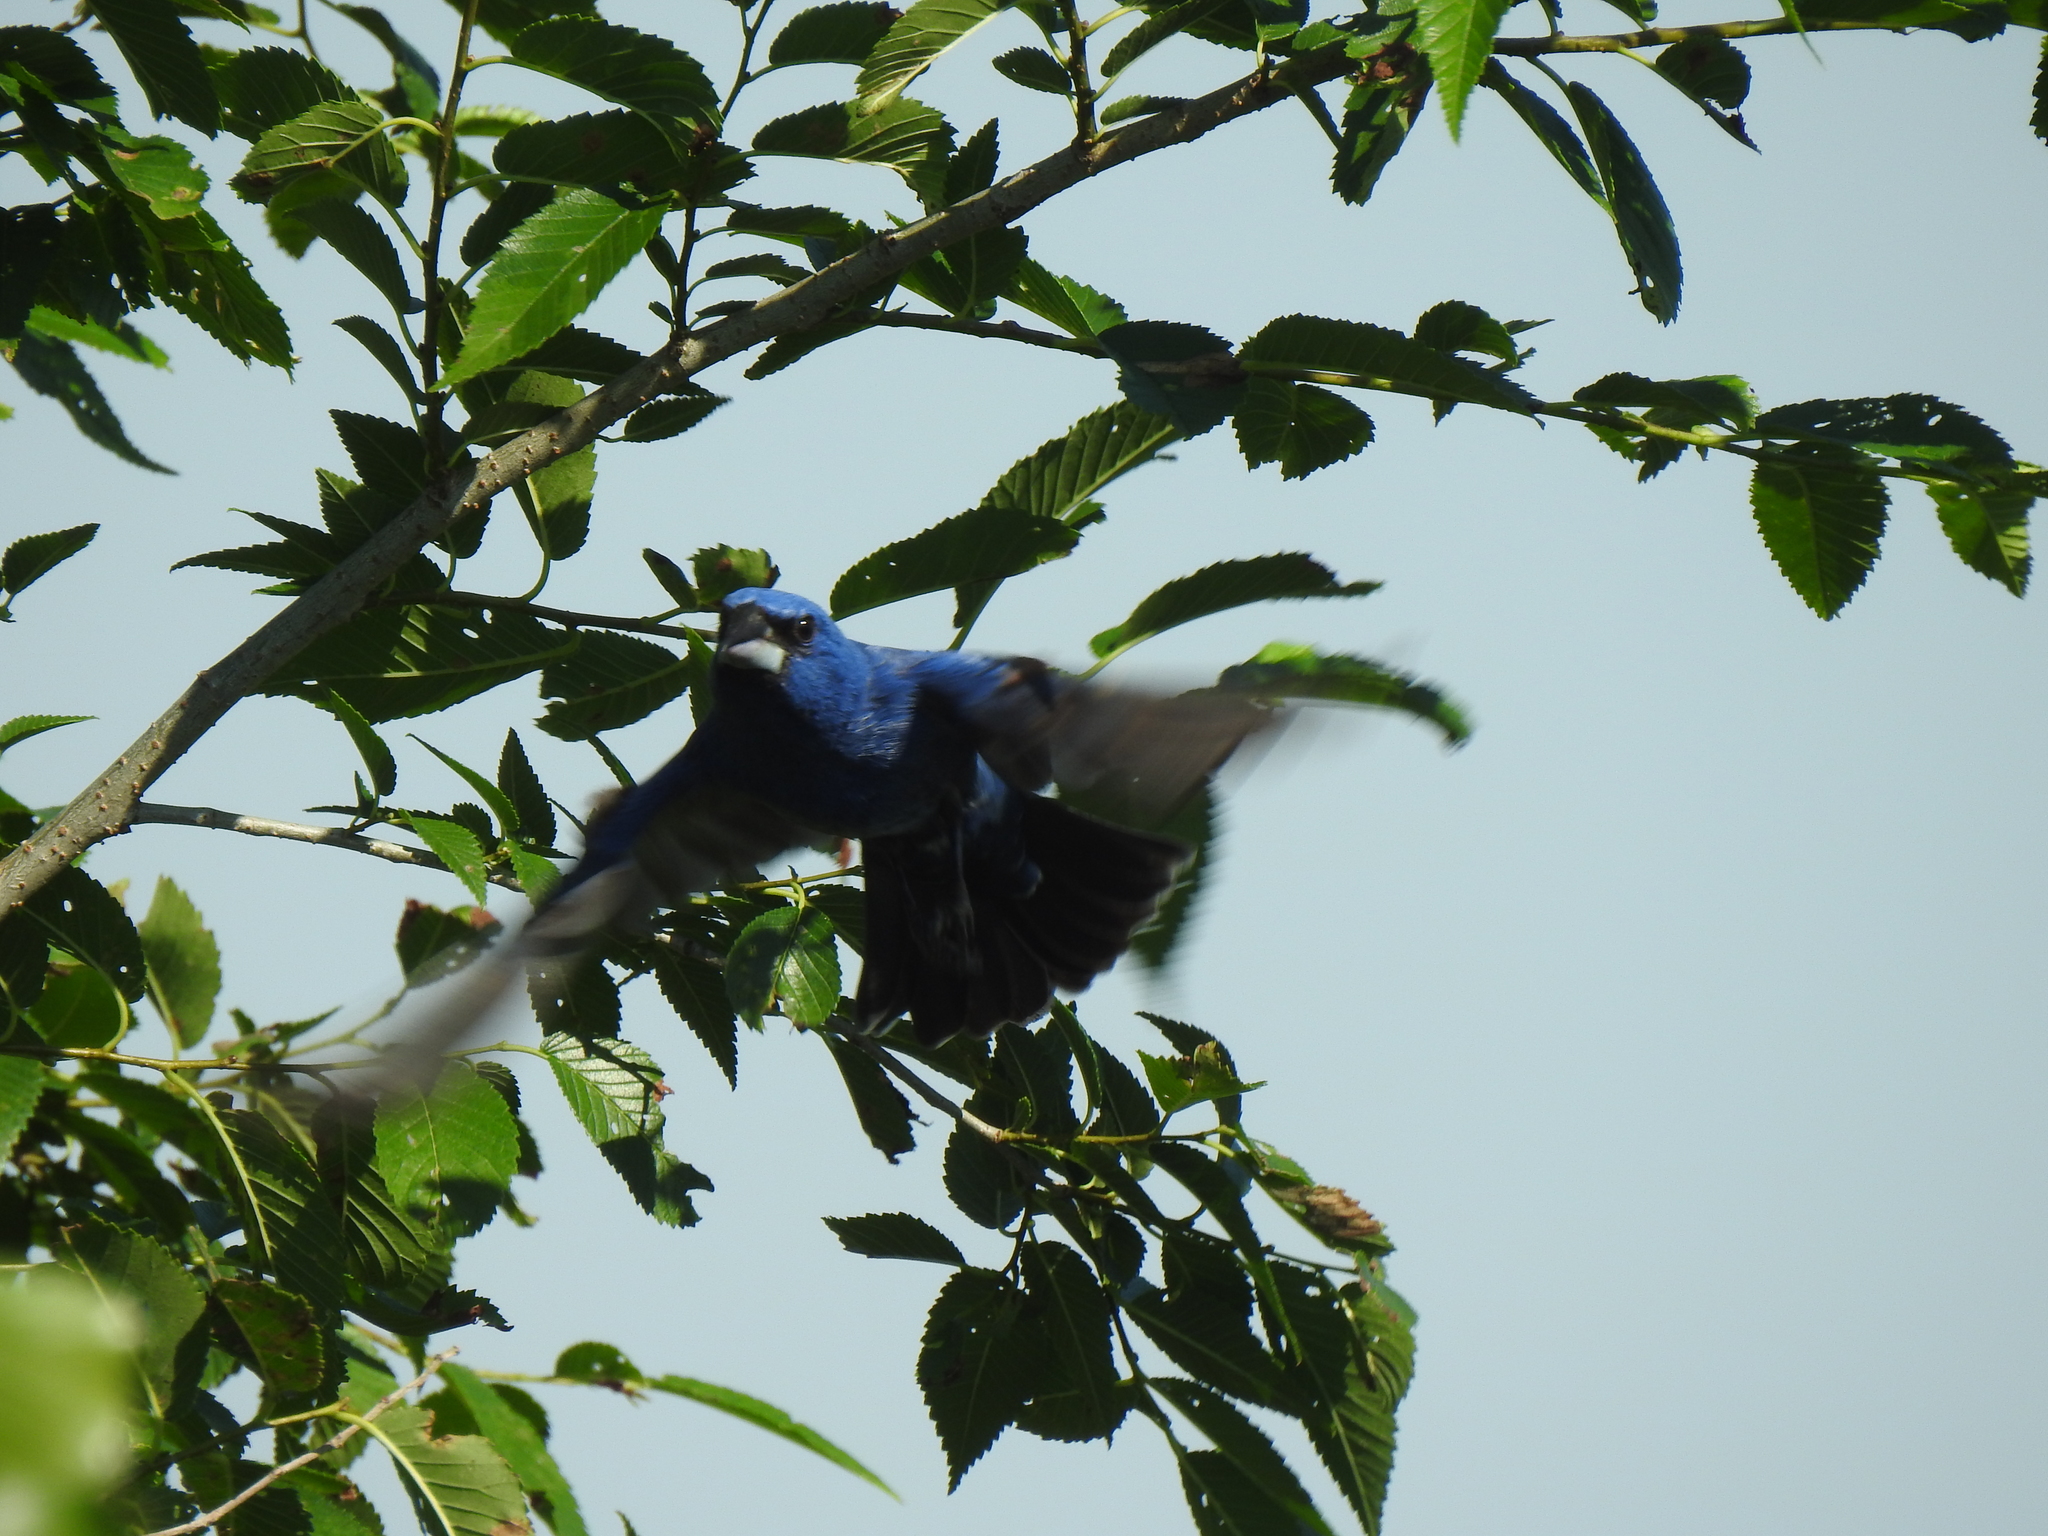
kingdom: Animalia
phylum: Chordata
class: Aves
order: Passeriformes
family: Cardinalidae
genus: Passerina
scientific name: Passerina caerulea
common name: Blue grosbeak
